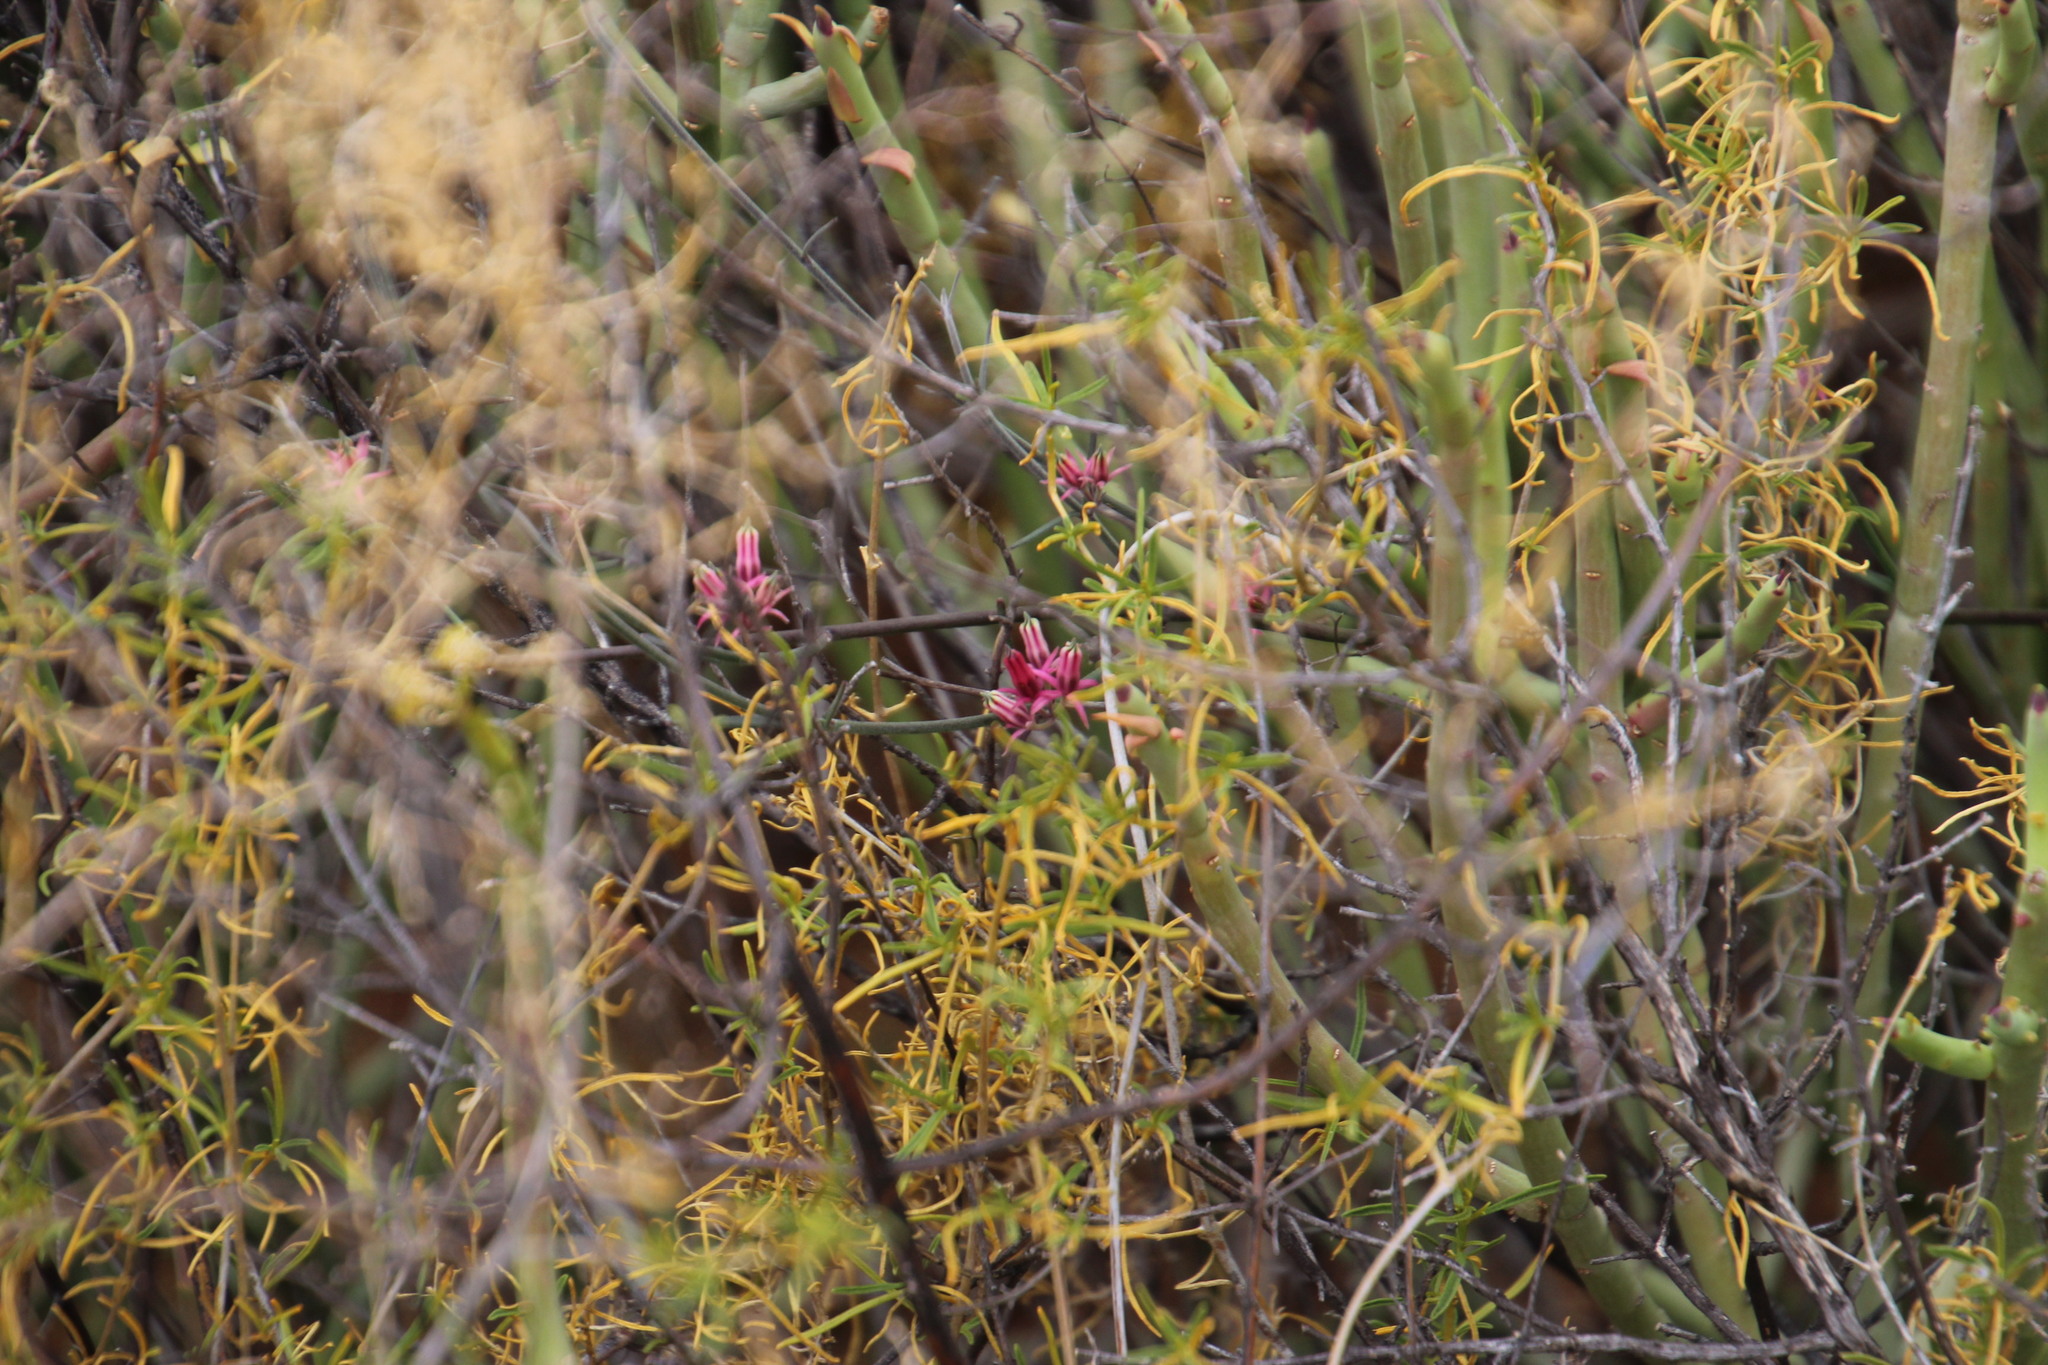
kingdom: Plantae
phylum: Tracheophyta
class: Magnoliopsida
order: Gentianales
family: Apocynaceae
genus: Microloma
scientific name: Microloma sagittatum
